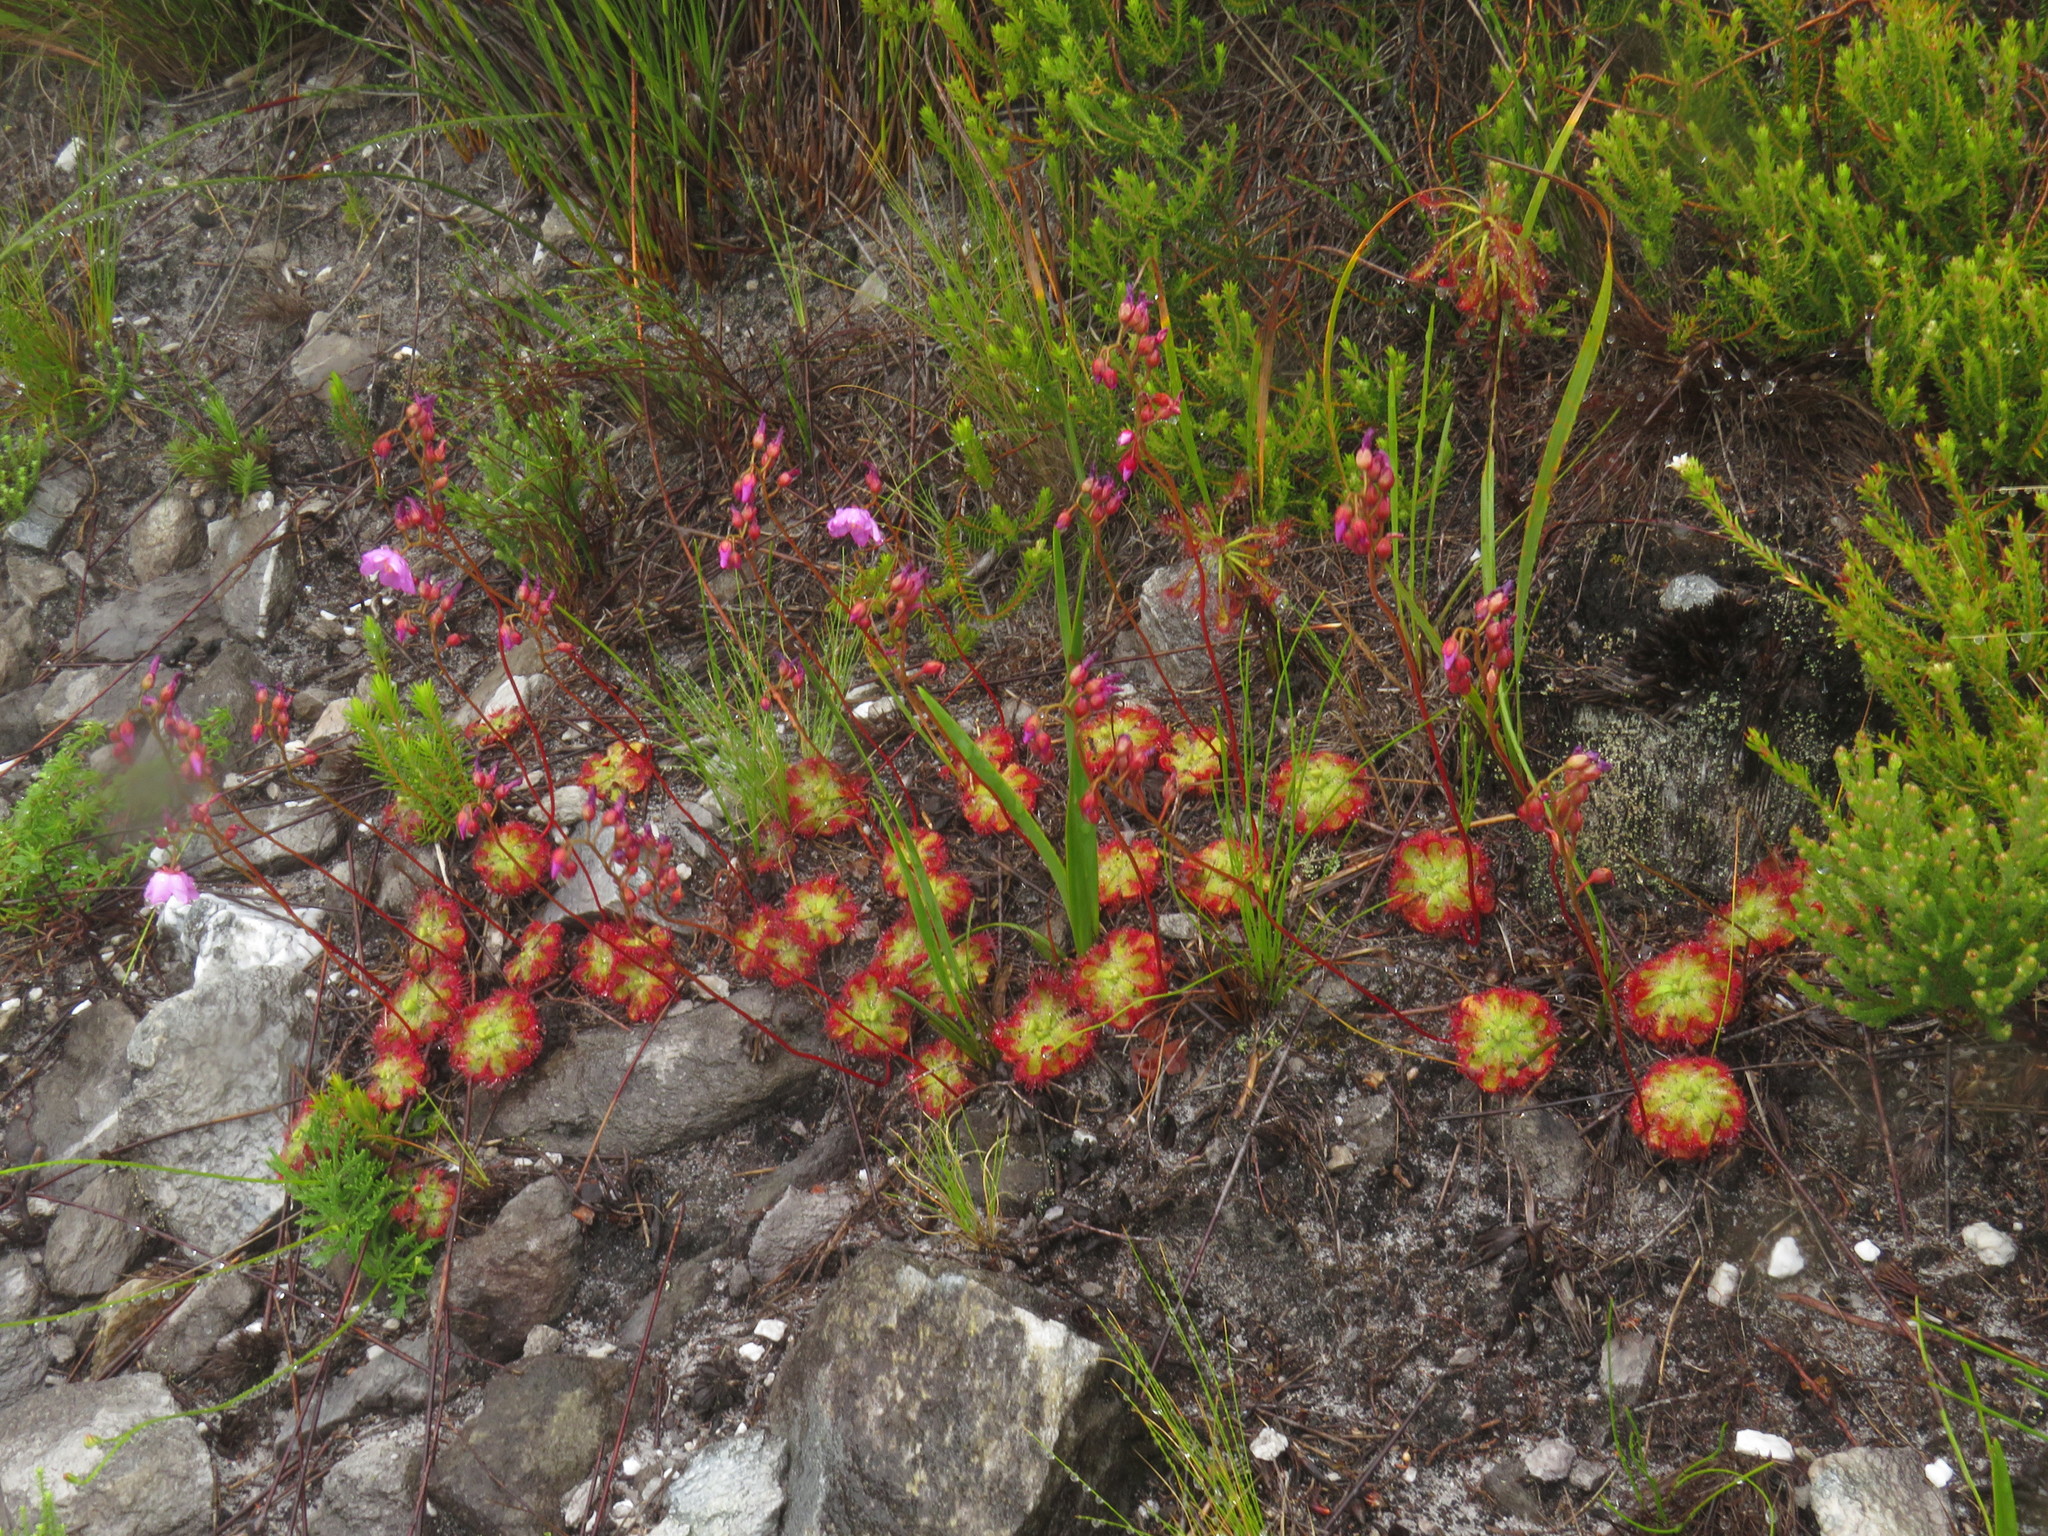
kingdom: Plantae
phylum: Tracheophyta
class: Magnoliopsida
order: Caryophyllales
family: Droseraceae
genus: Drosera
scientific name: Drosera xerophila
